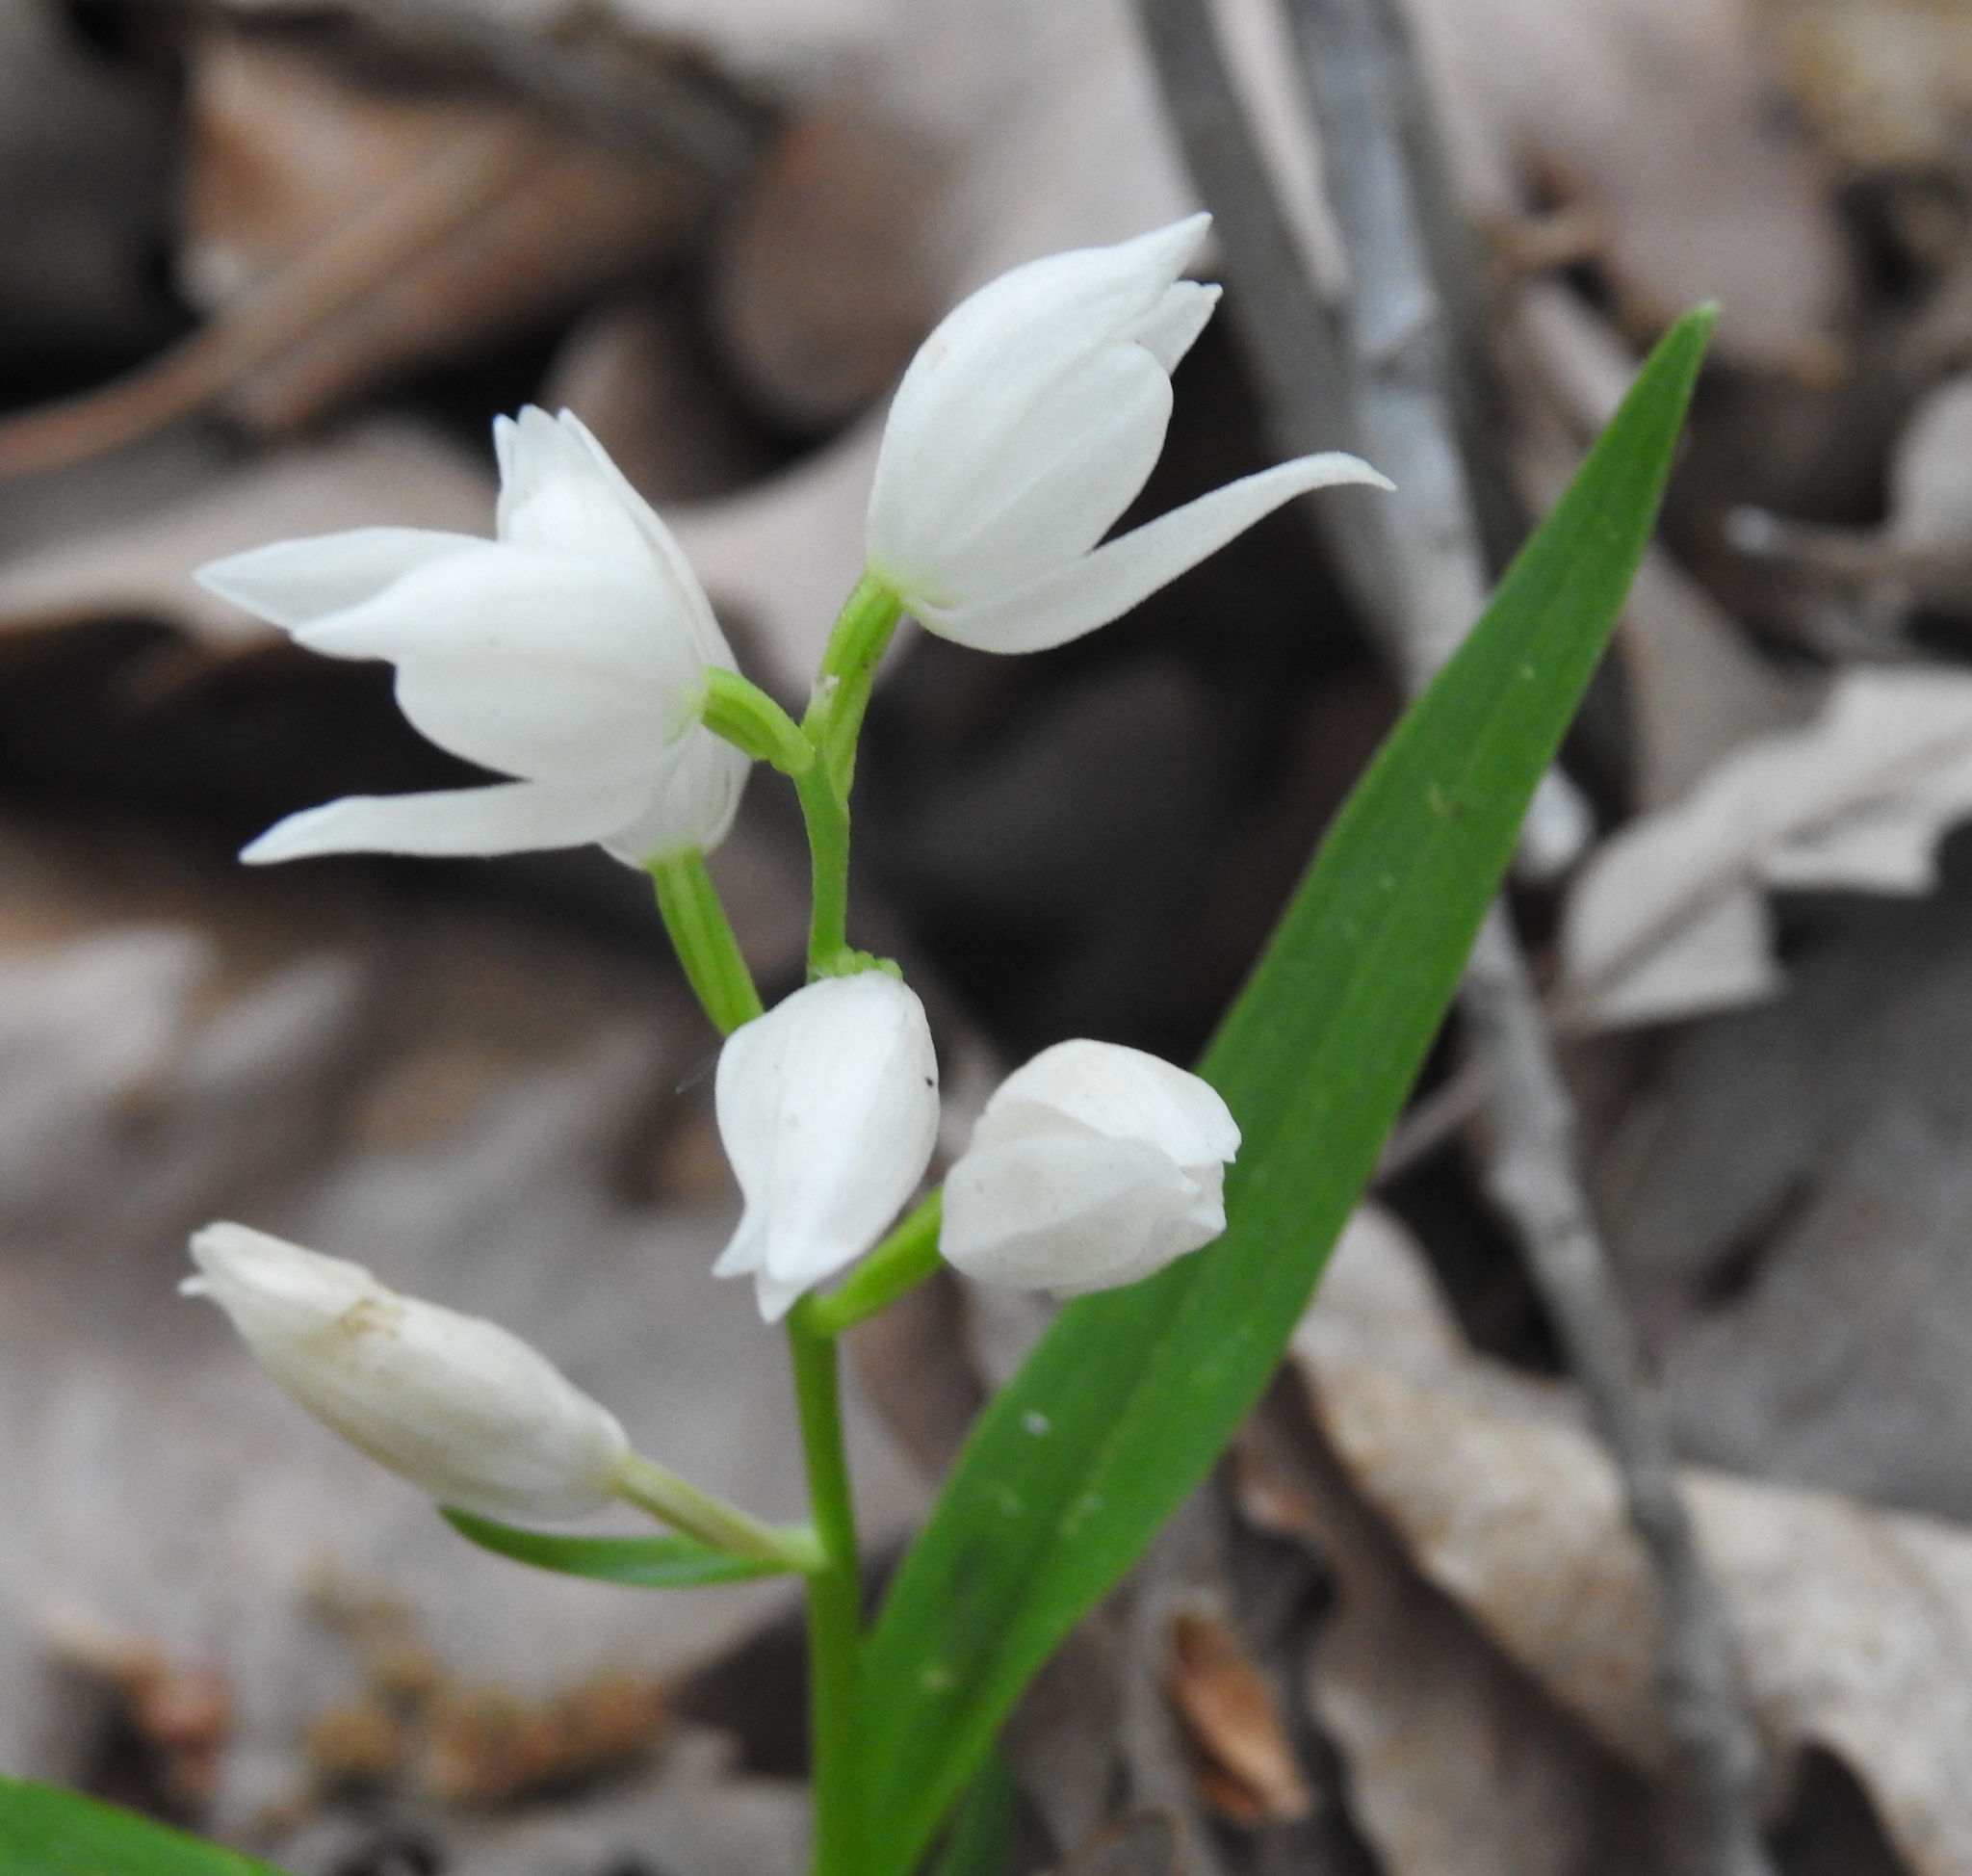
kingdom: Plantae
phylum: Tracheophyta
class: Liliopsida
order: Asparagales
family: Orchidaceae
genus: Cephalanthera
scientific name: Cephalanthera longifolia
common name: Narrow-leaved helleborine
